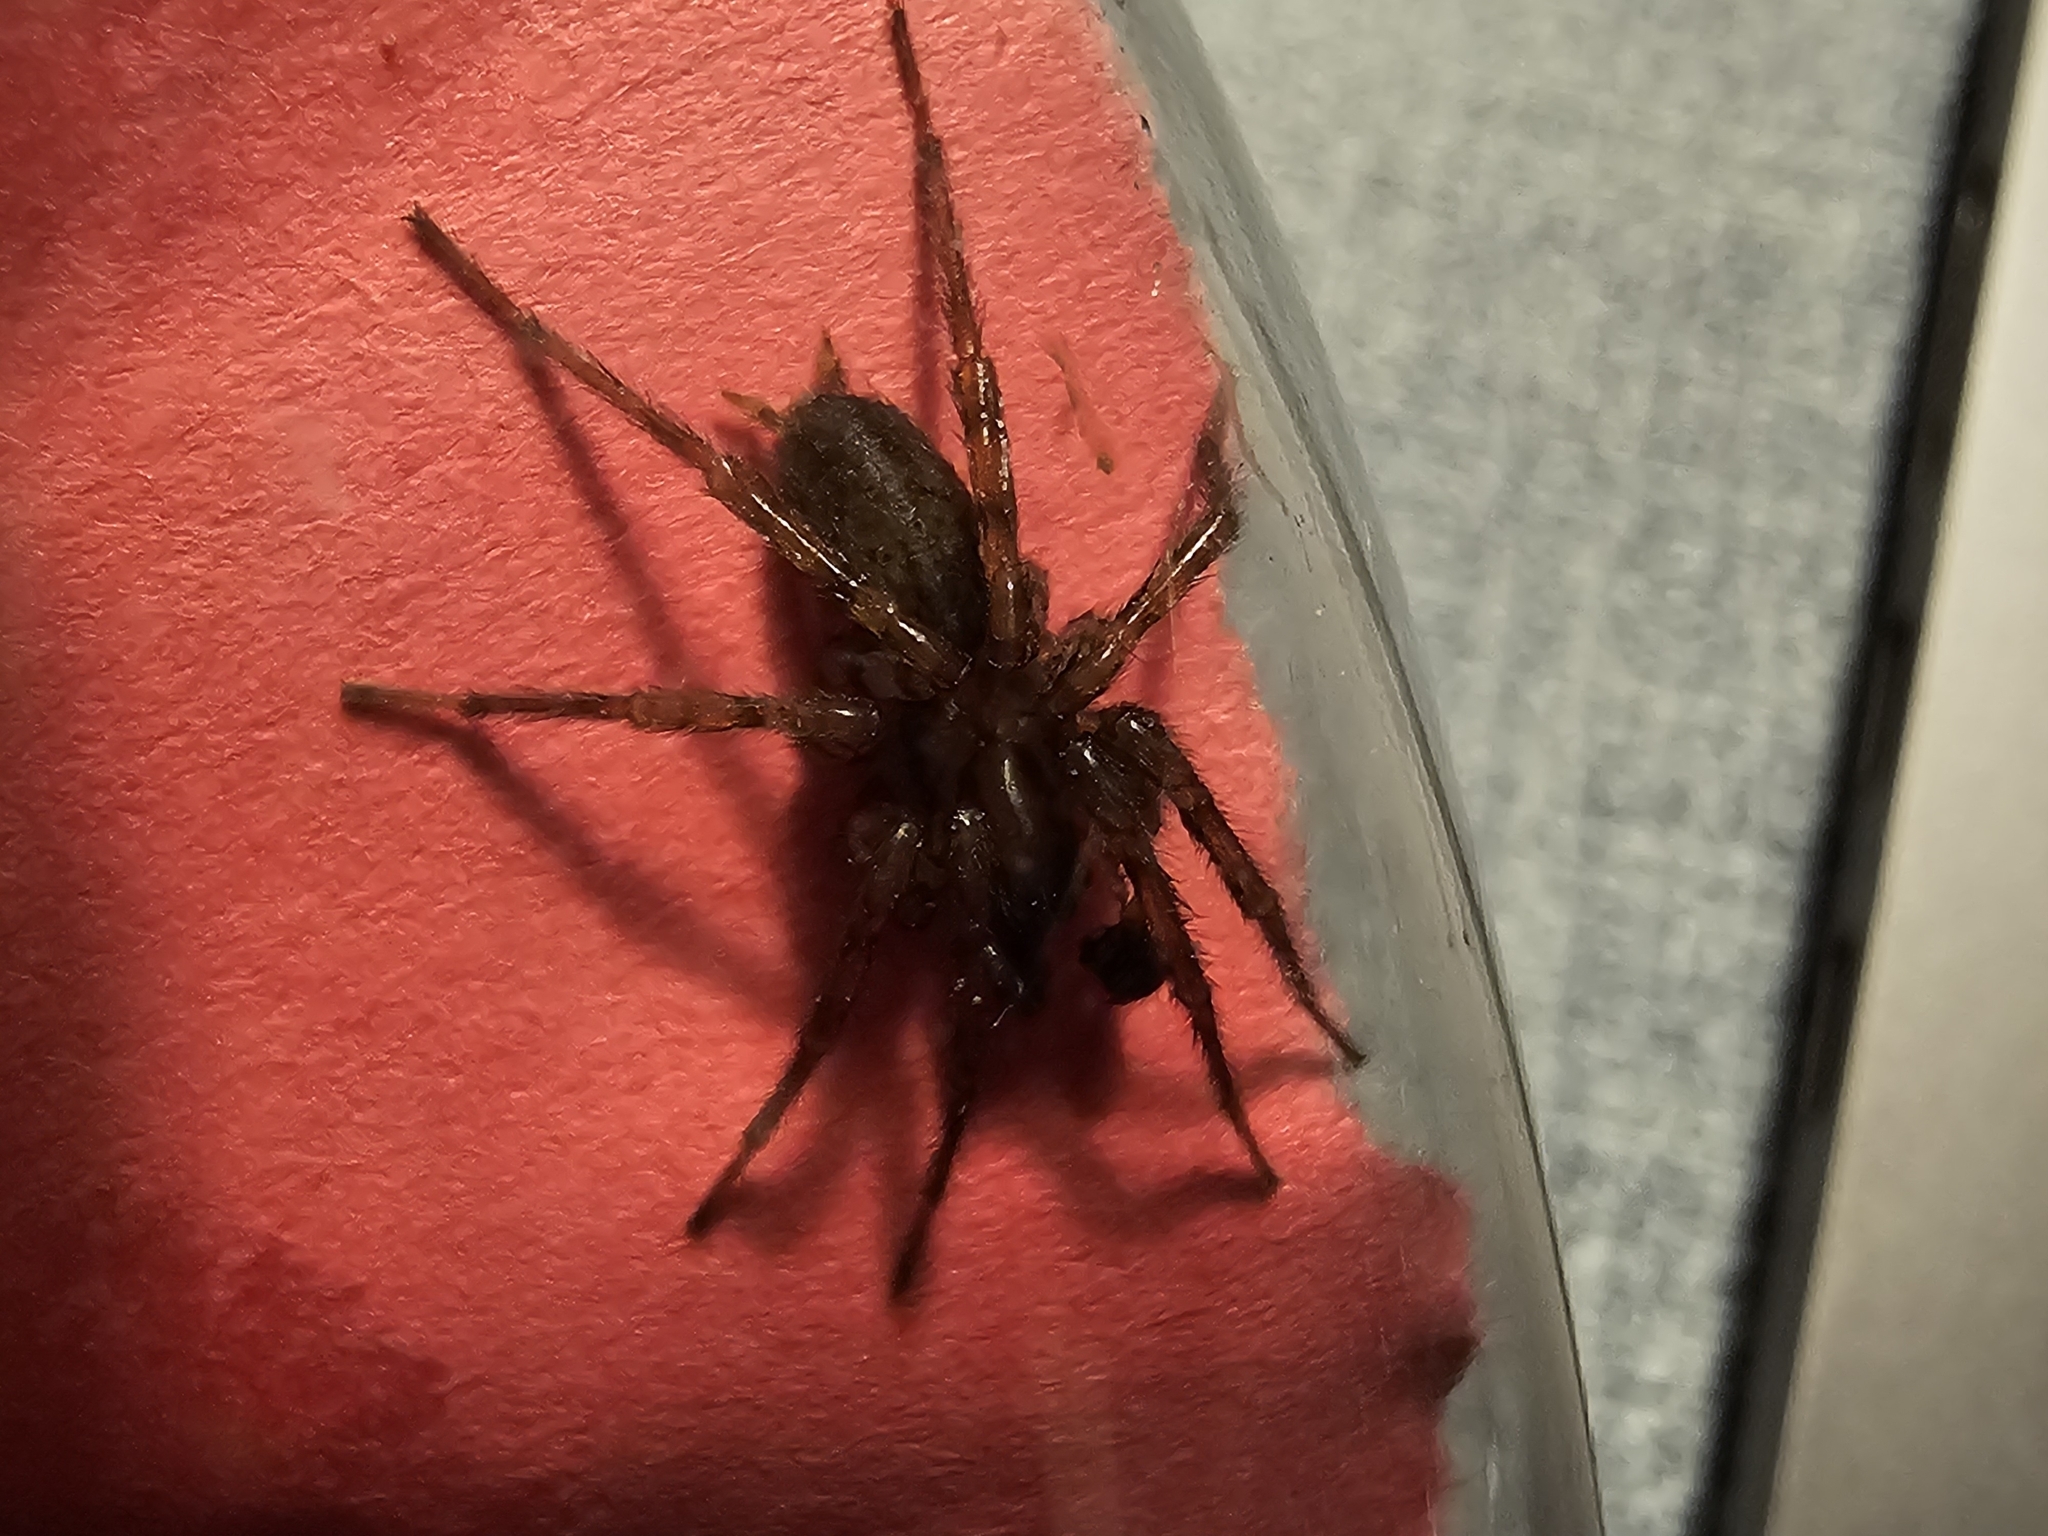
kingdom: Animalia
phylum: Arthropoda
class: Arachnida
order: Araneae
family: Agelenidae
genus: Coras
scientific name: Coras
